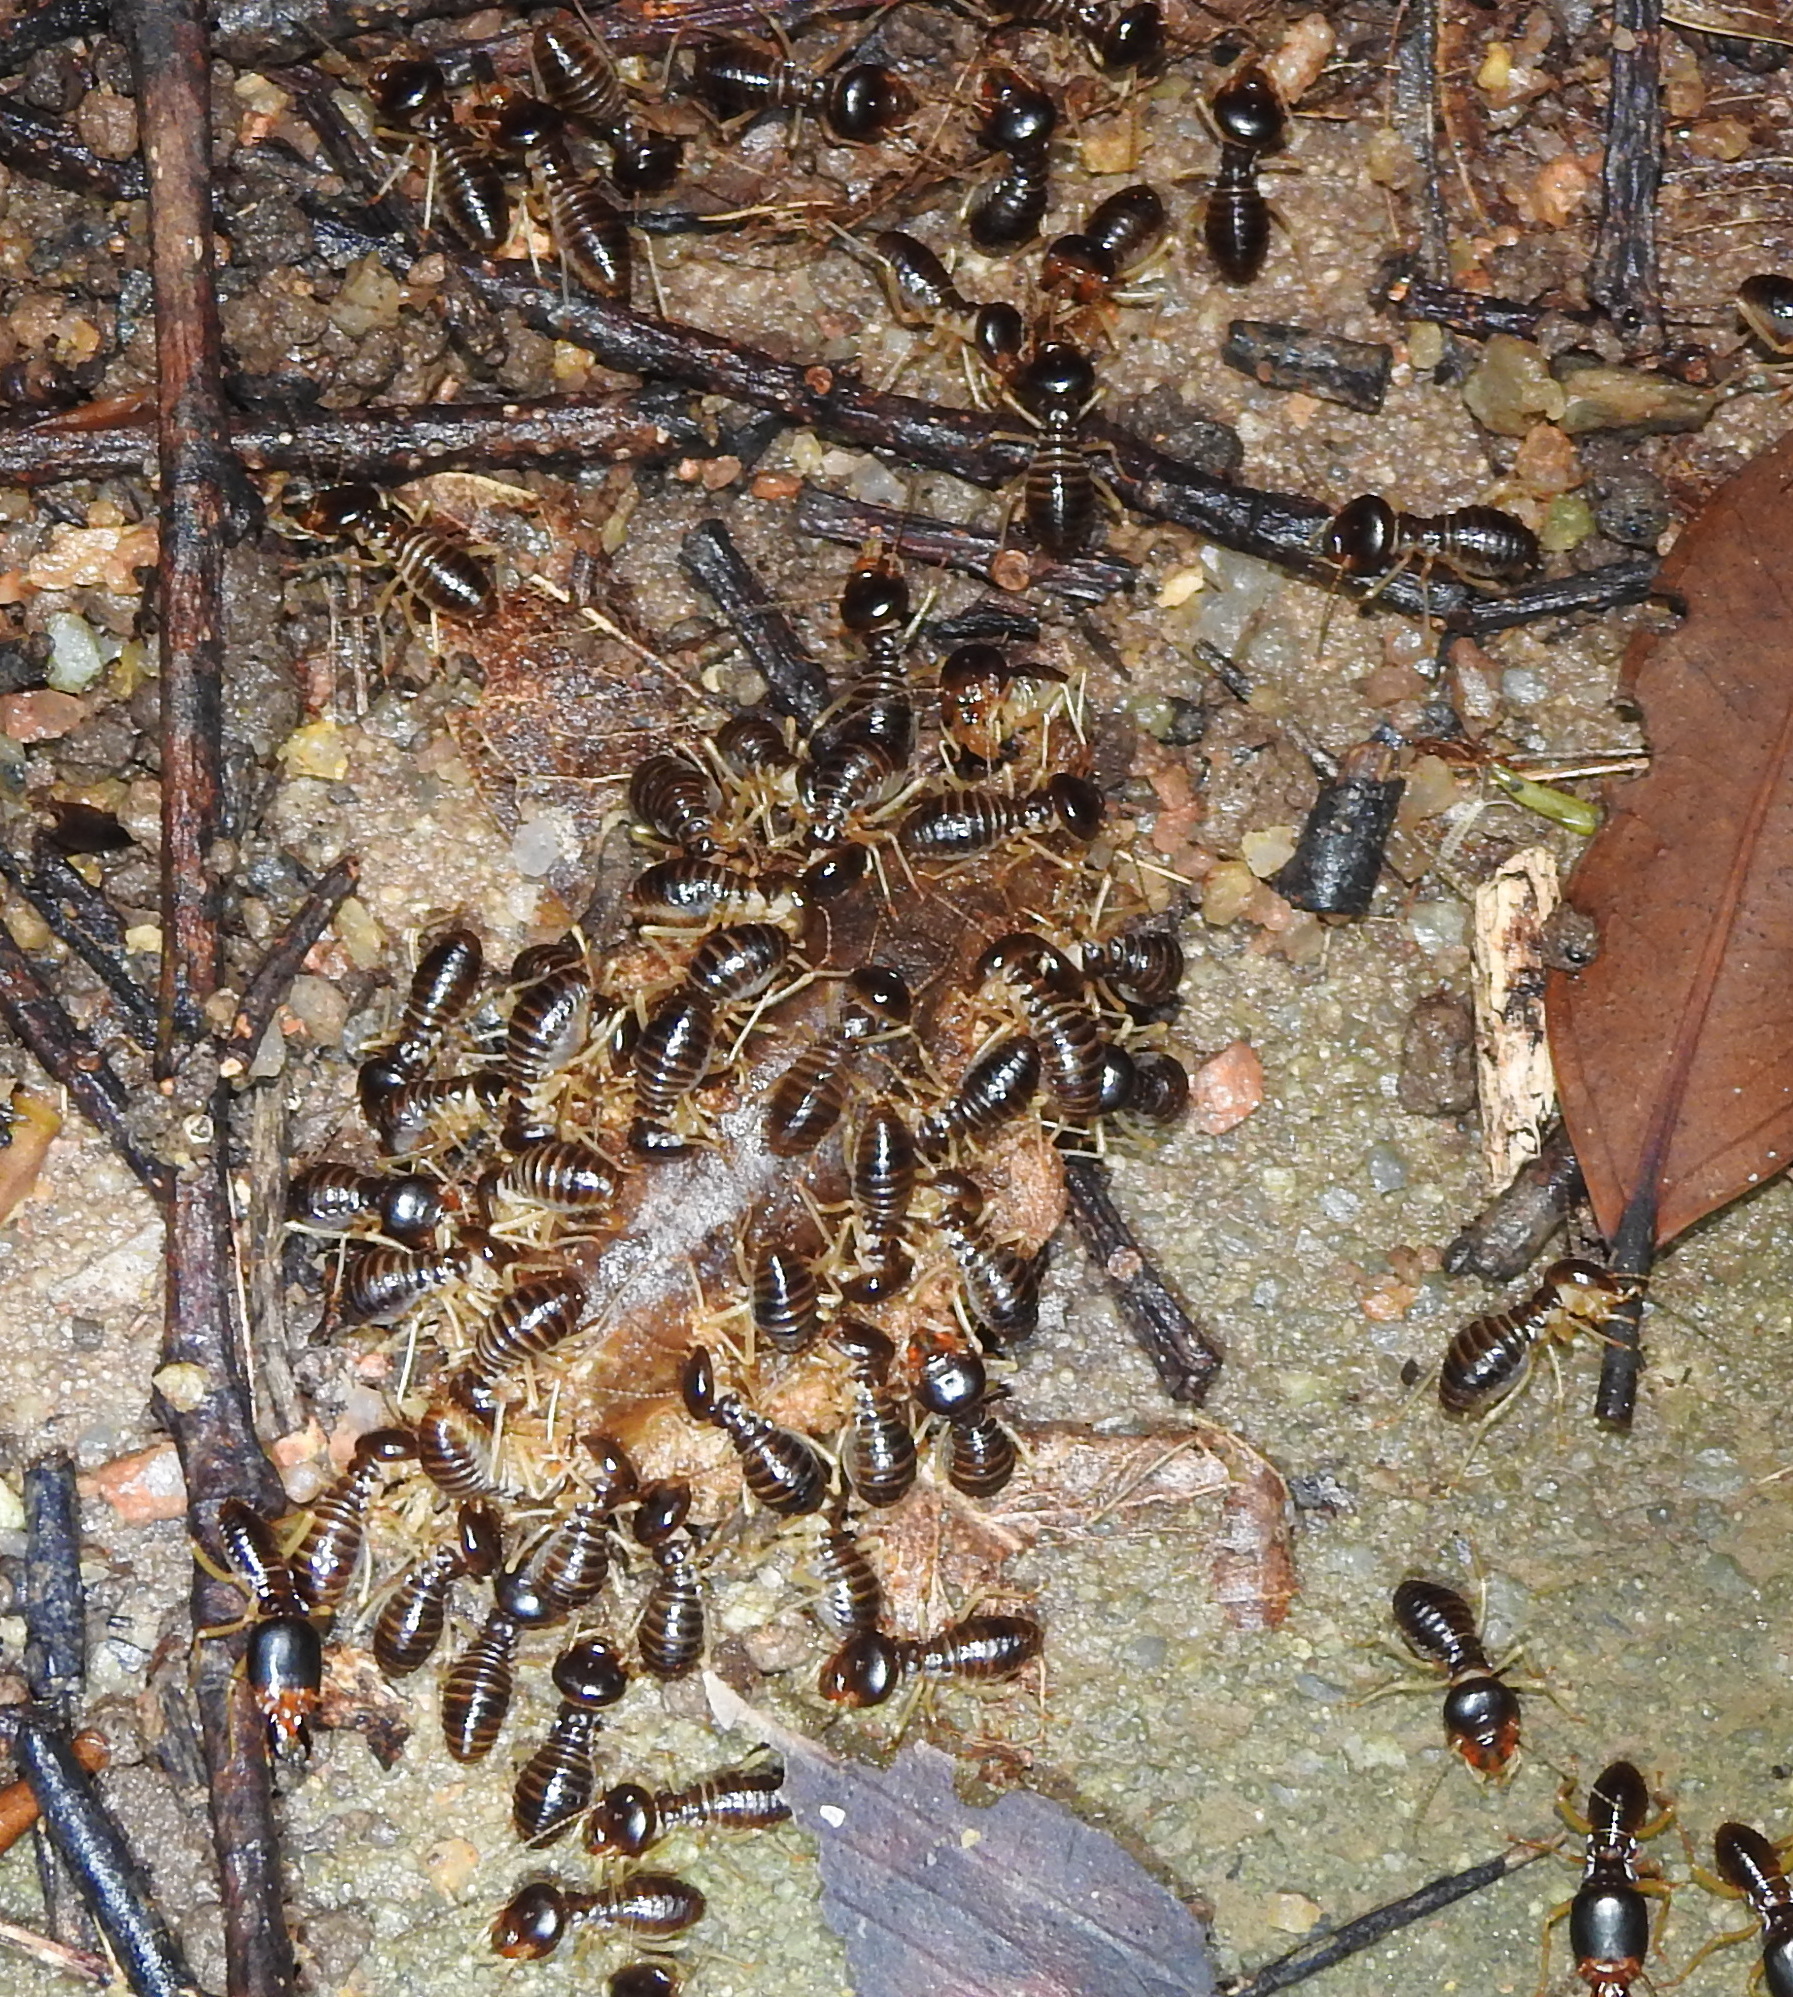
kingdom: Animalia
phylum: Arthropoda
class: Insecta
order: Blattodea
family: Termitidae
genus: Macrotermes
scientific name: Macrotermes carbonarius
